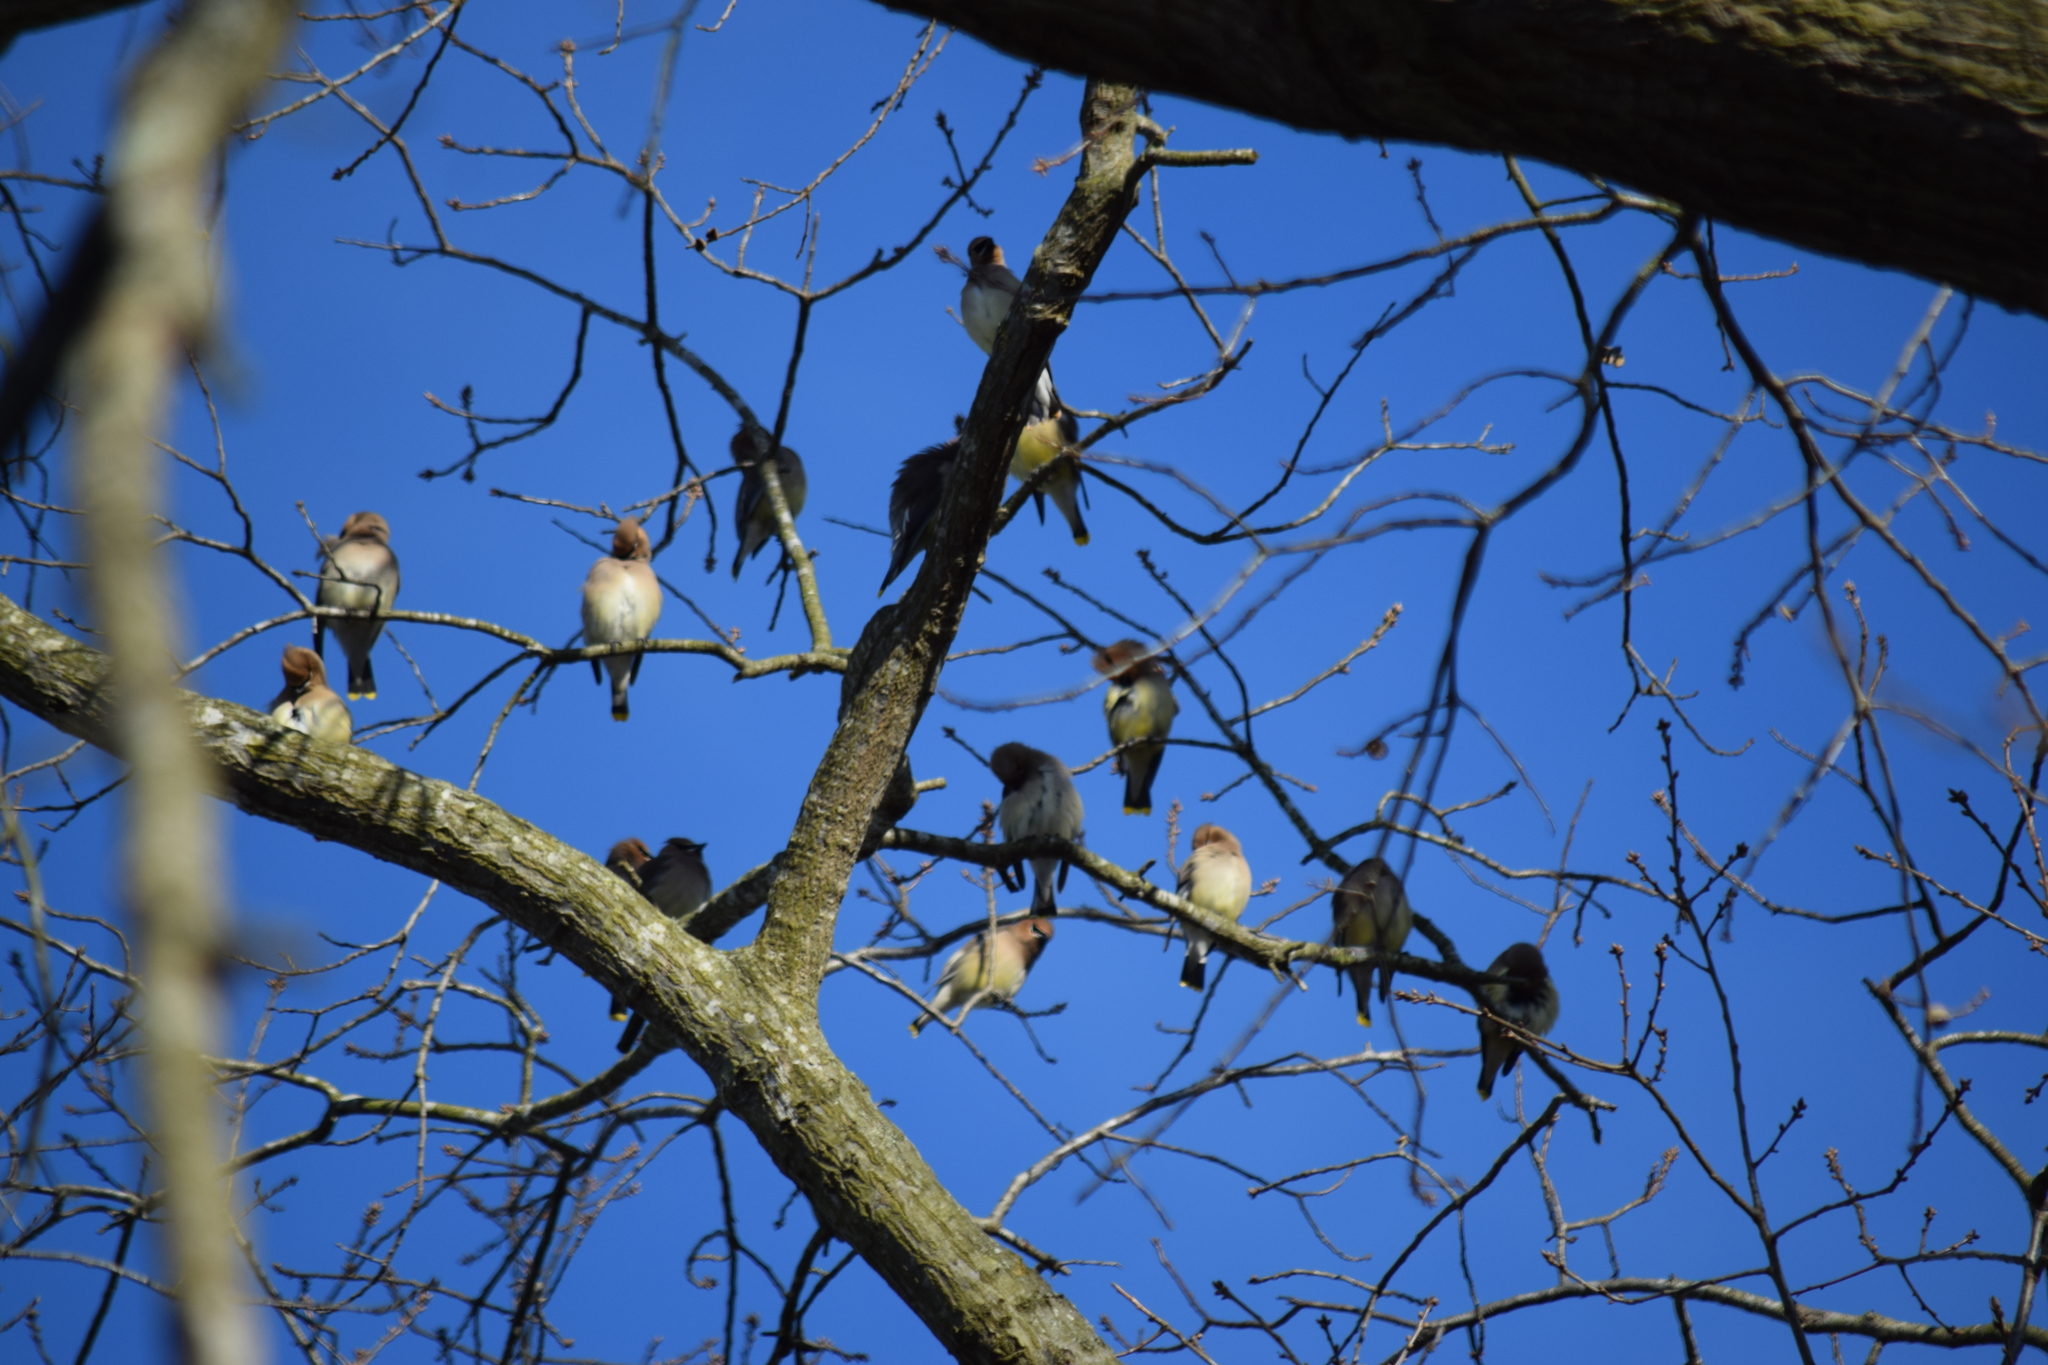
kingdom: Animalia
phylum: Chordata
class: Aves
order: Passeriformes
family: Bombycillidae
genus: Bombycilla
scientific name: Bombycilla cedrorum
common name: Cedar waxwing
